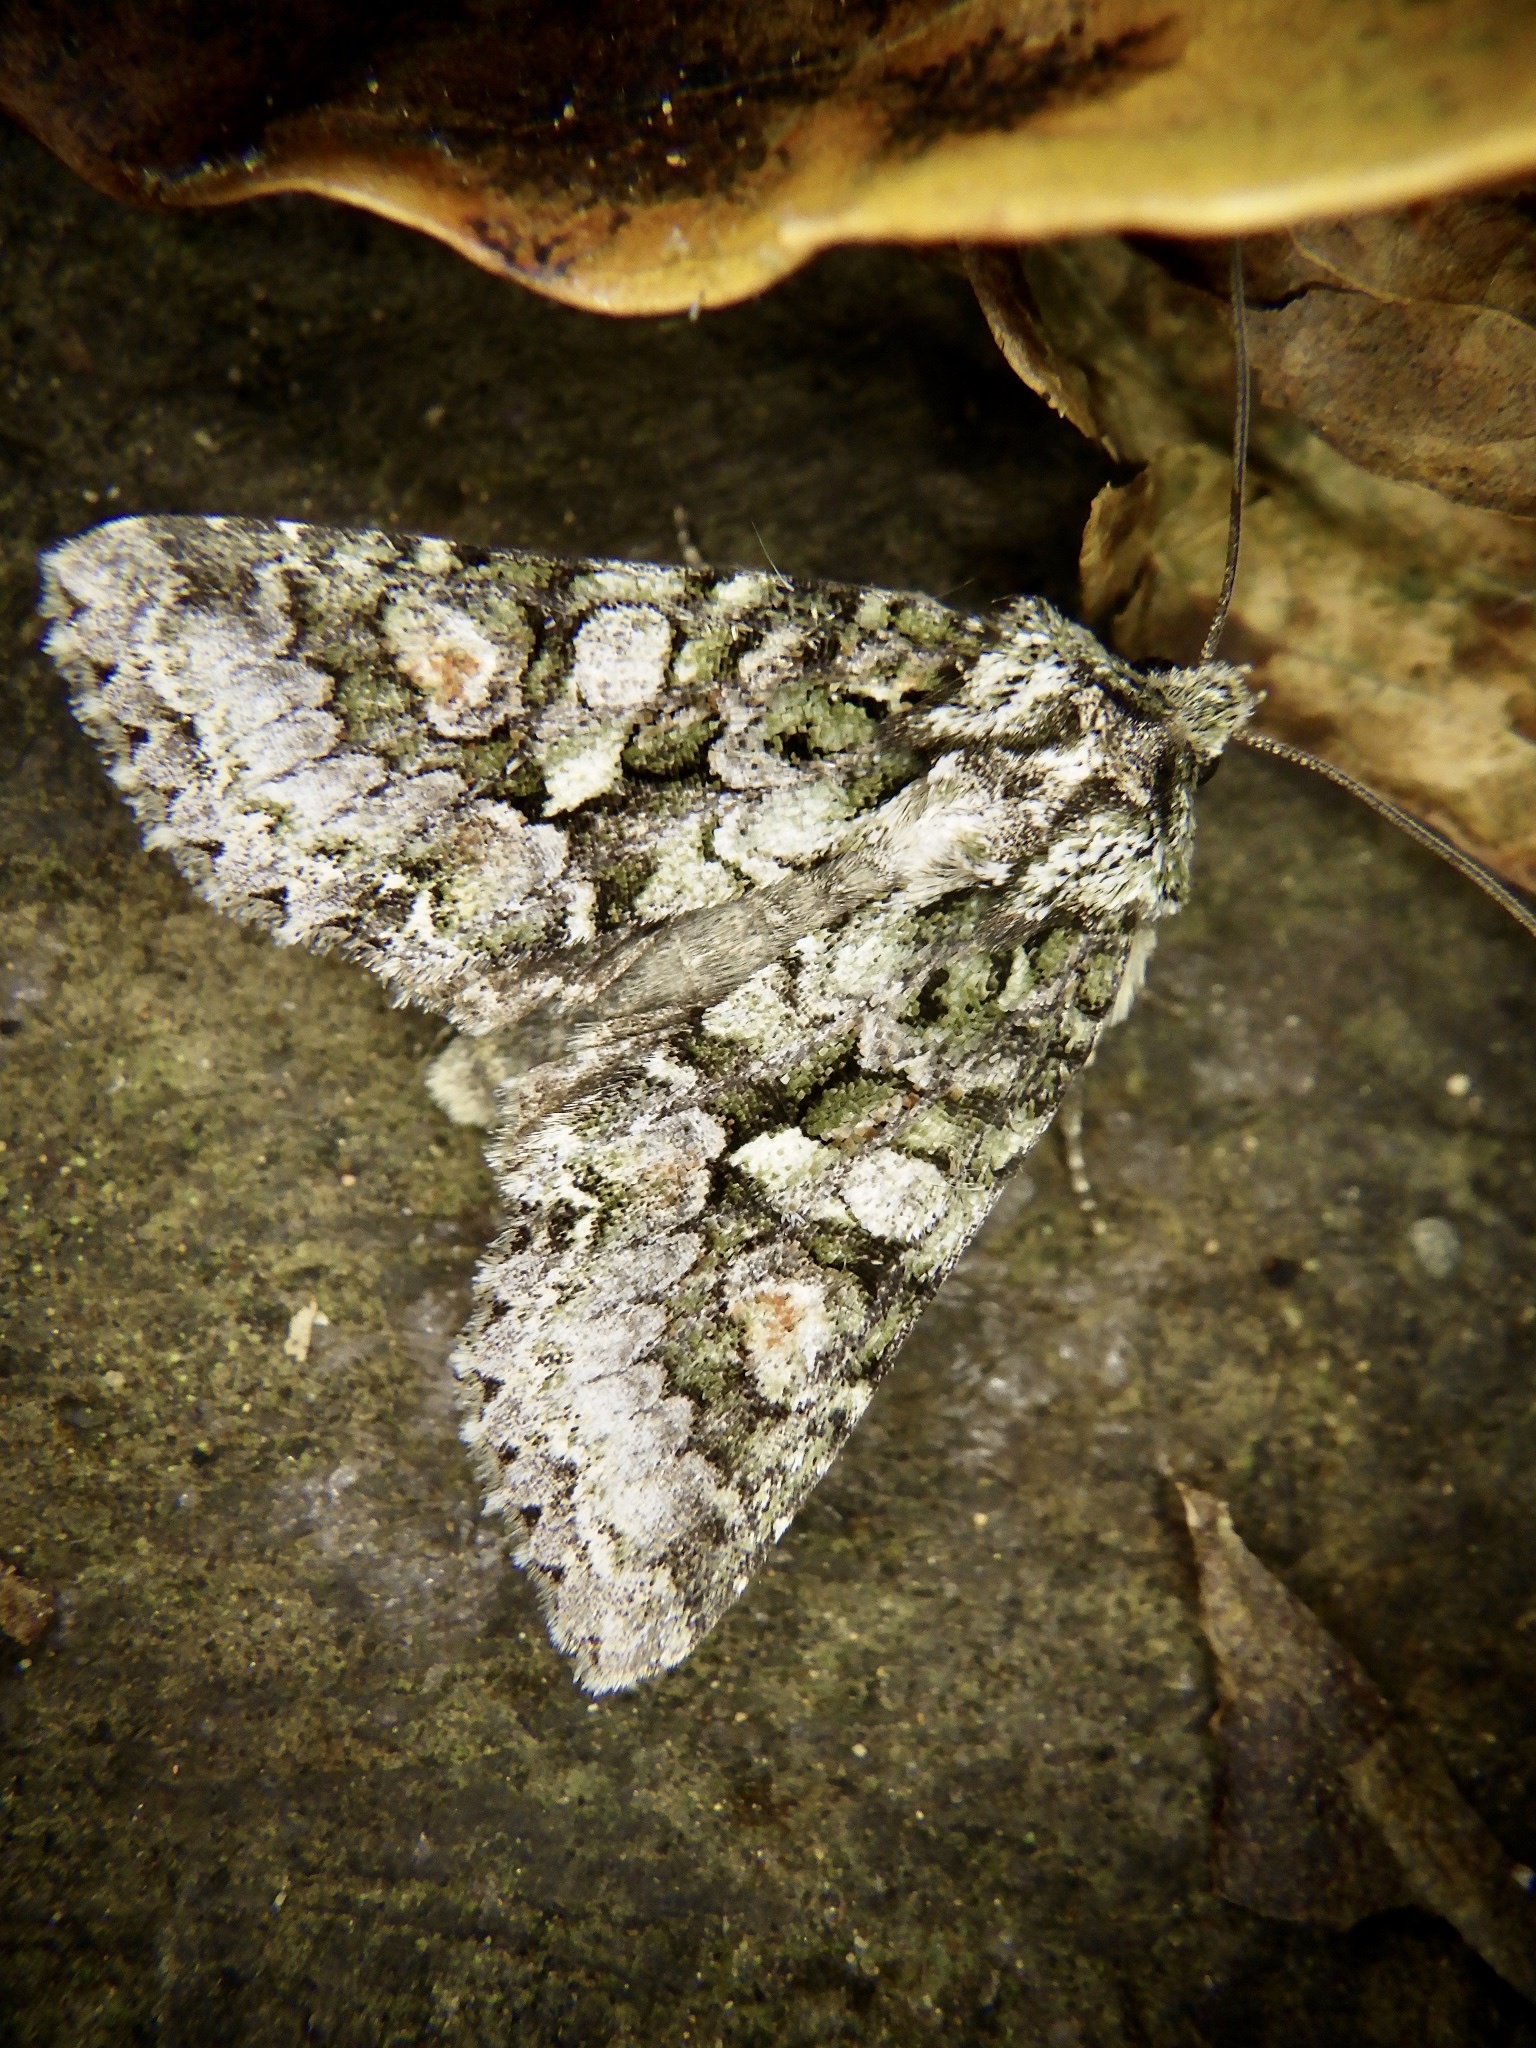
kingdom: Animalia
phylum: Arthropoda
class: Insecta
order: Lepidoptera
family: Noctuidae
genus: Dryobotodes
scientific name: Dryobotodes intermissa
